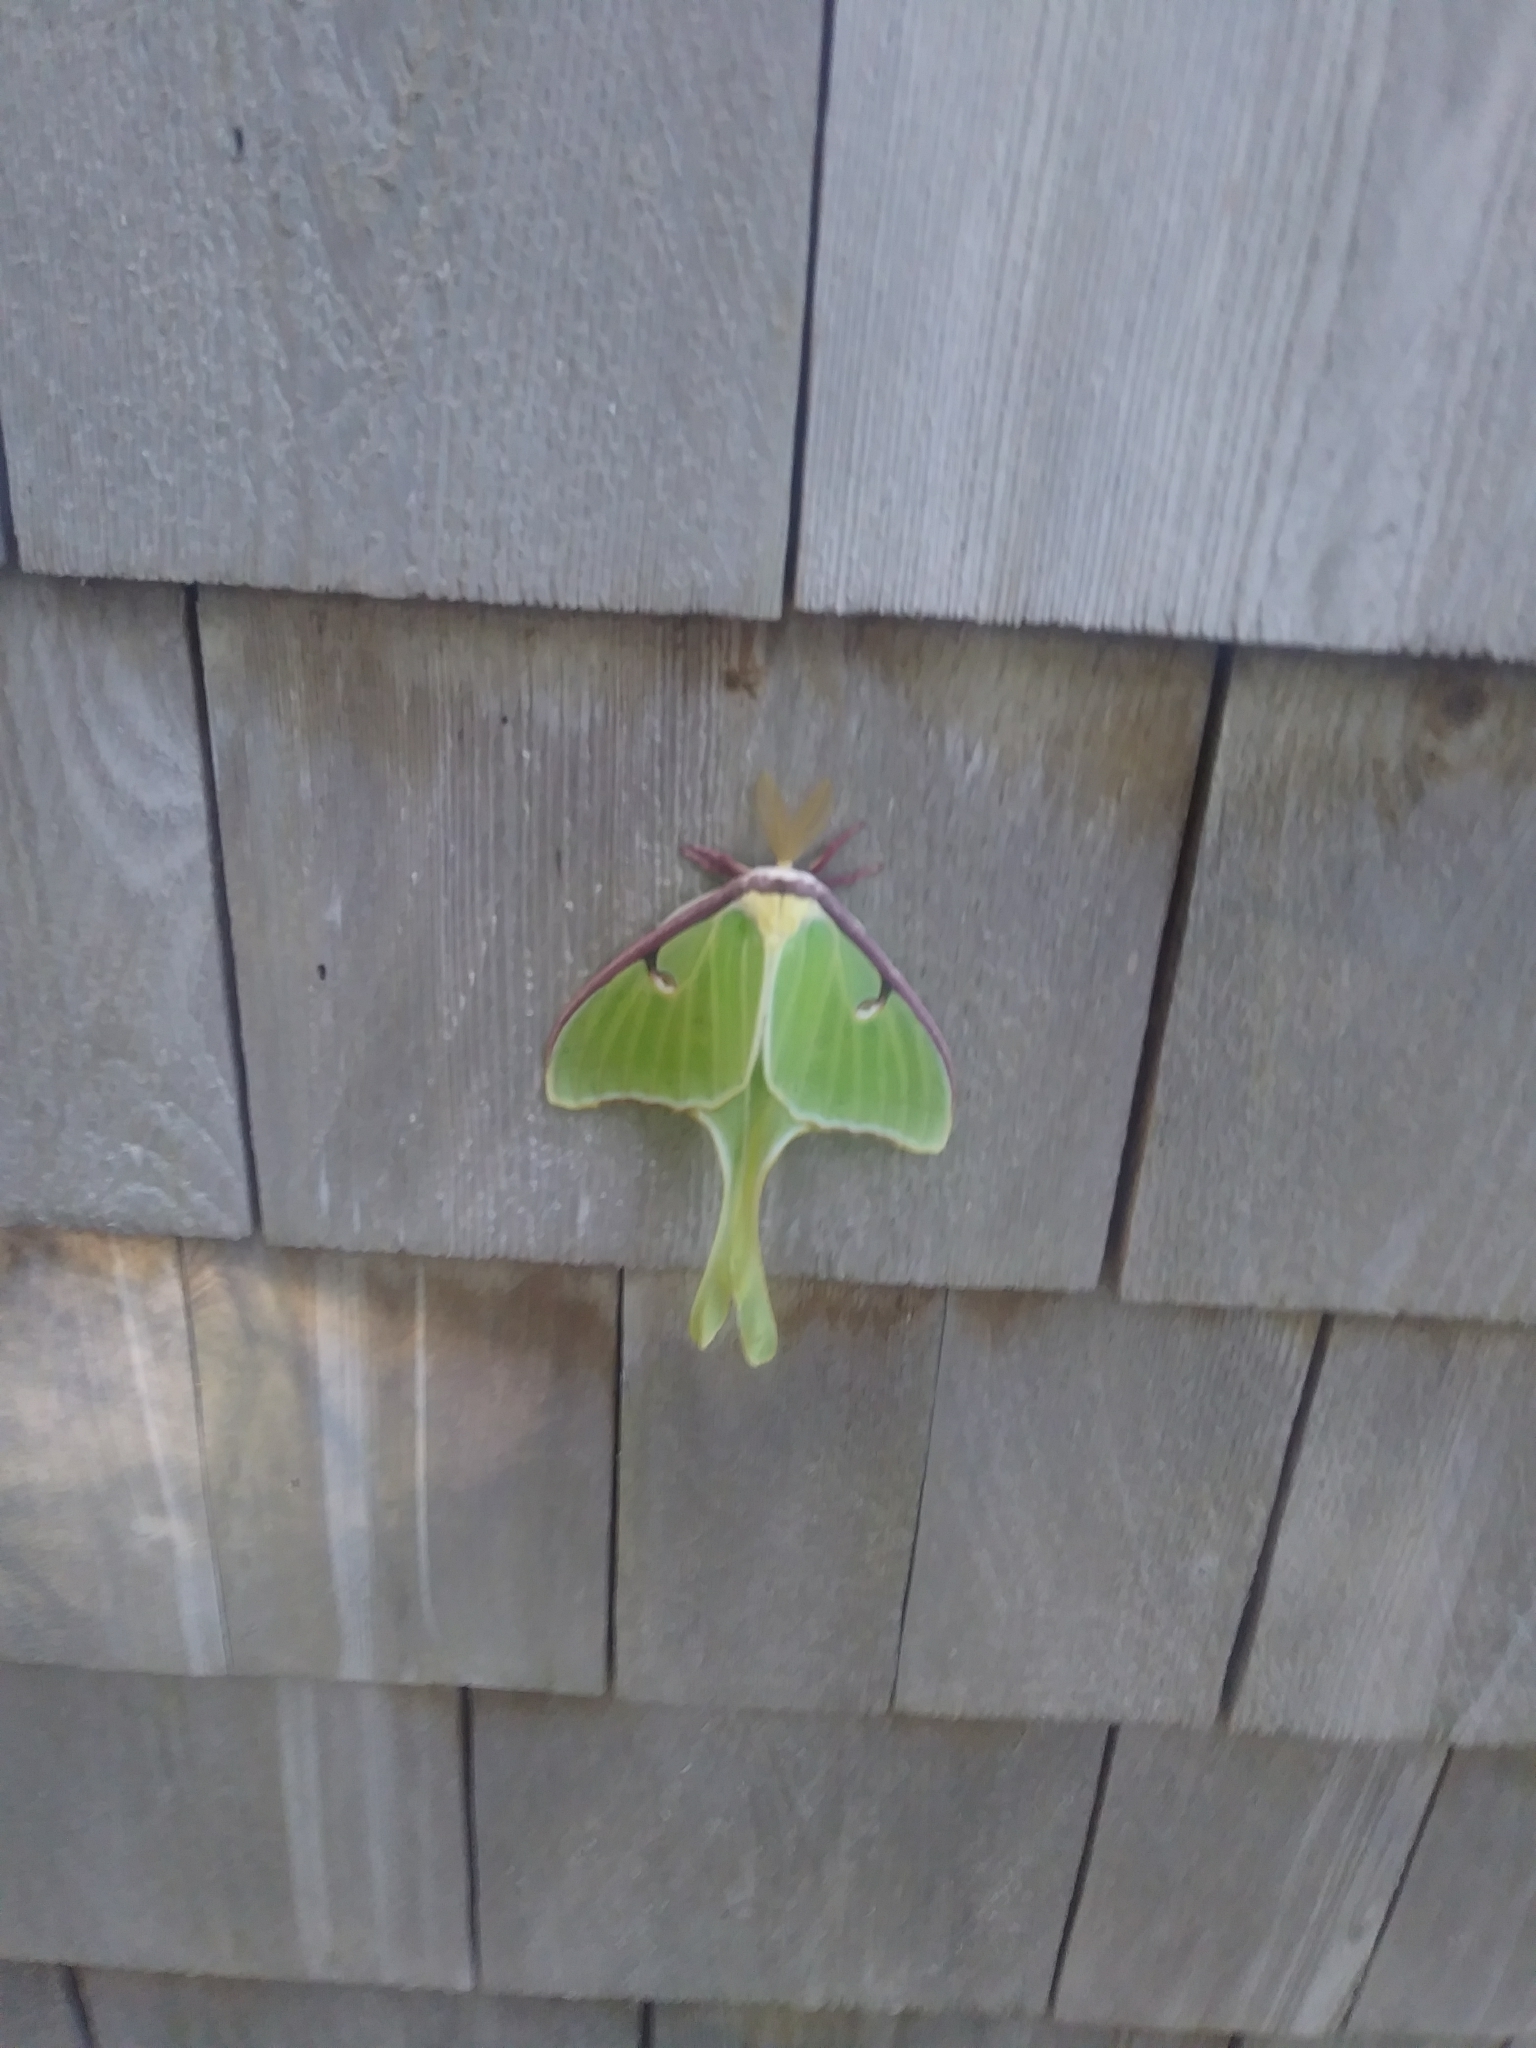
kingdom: Animalia
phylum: Arthropoda
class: Insecta
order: Lepidoptera
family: Saturniidae
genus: Actias
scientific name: Actias luna
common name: Luna moth
